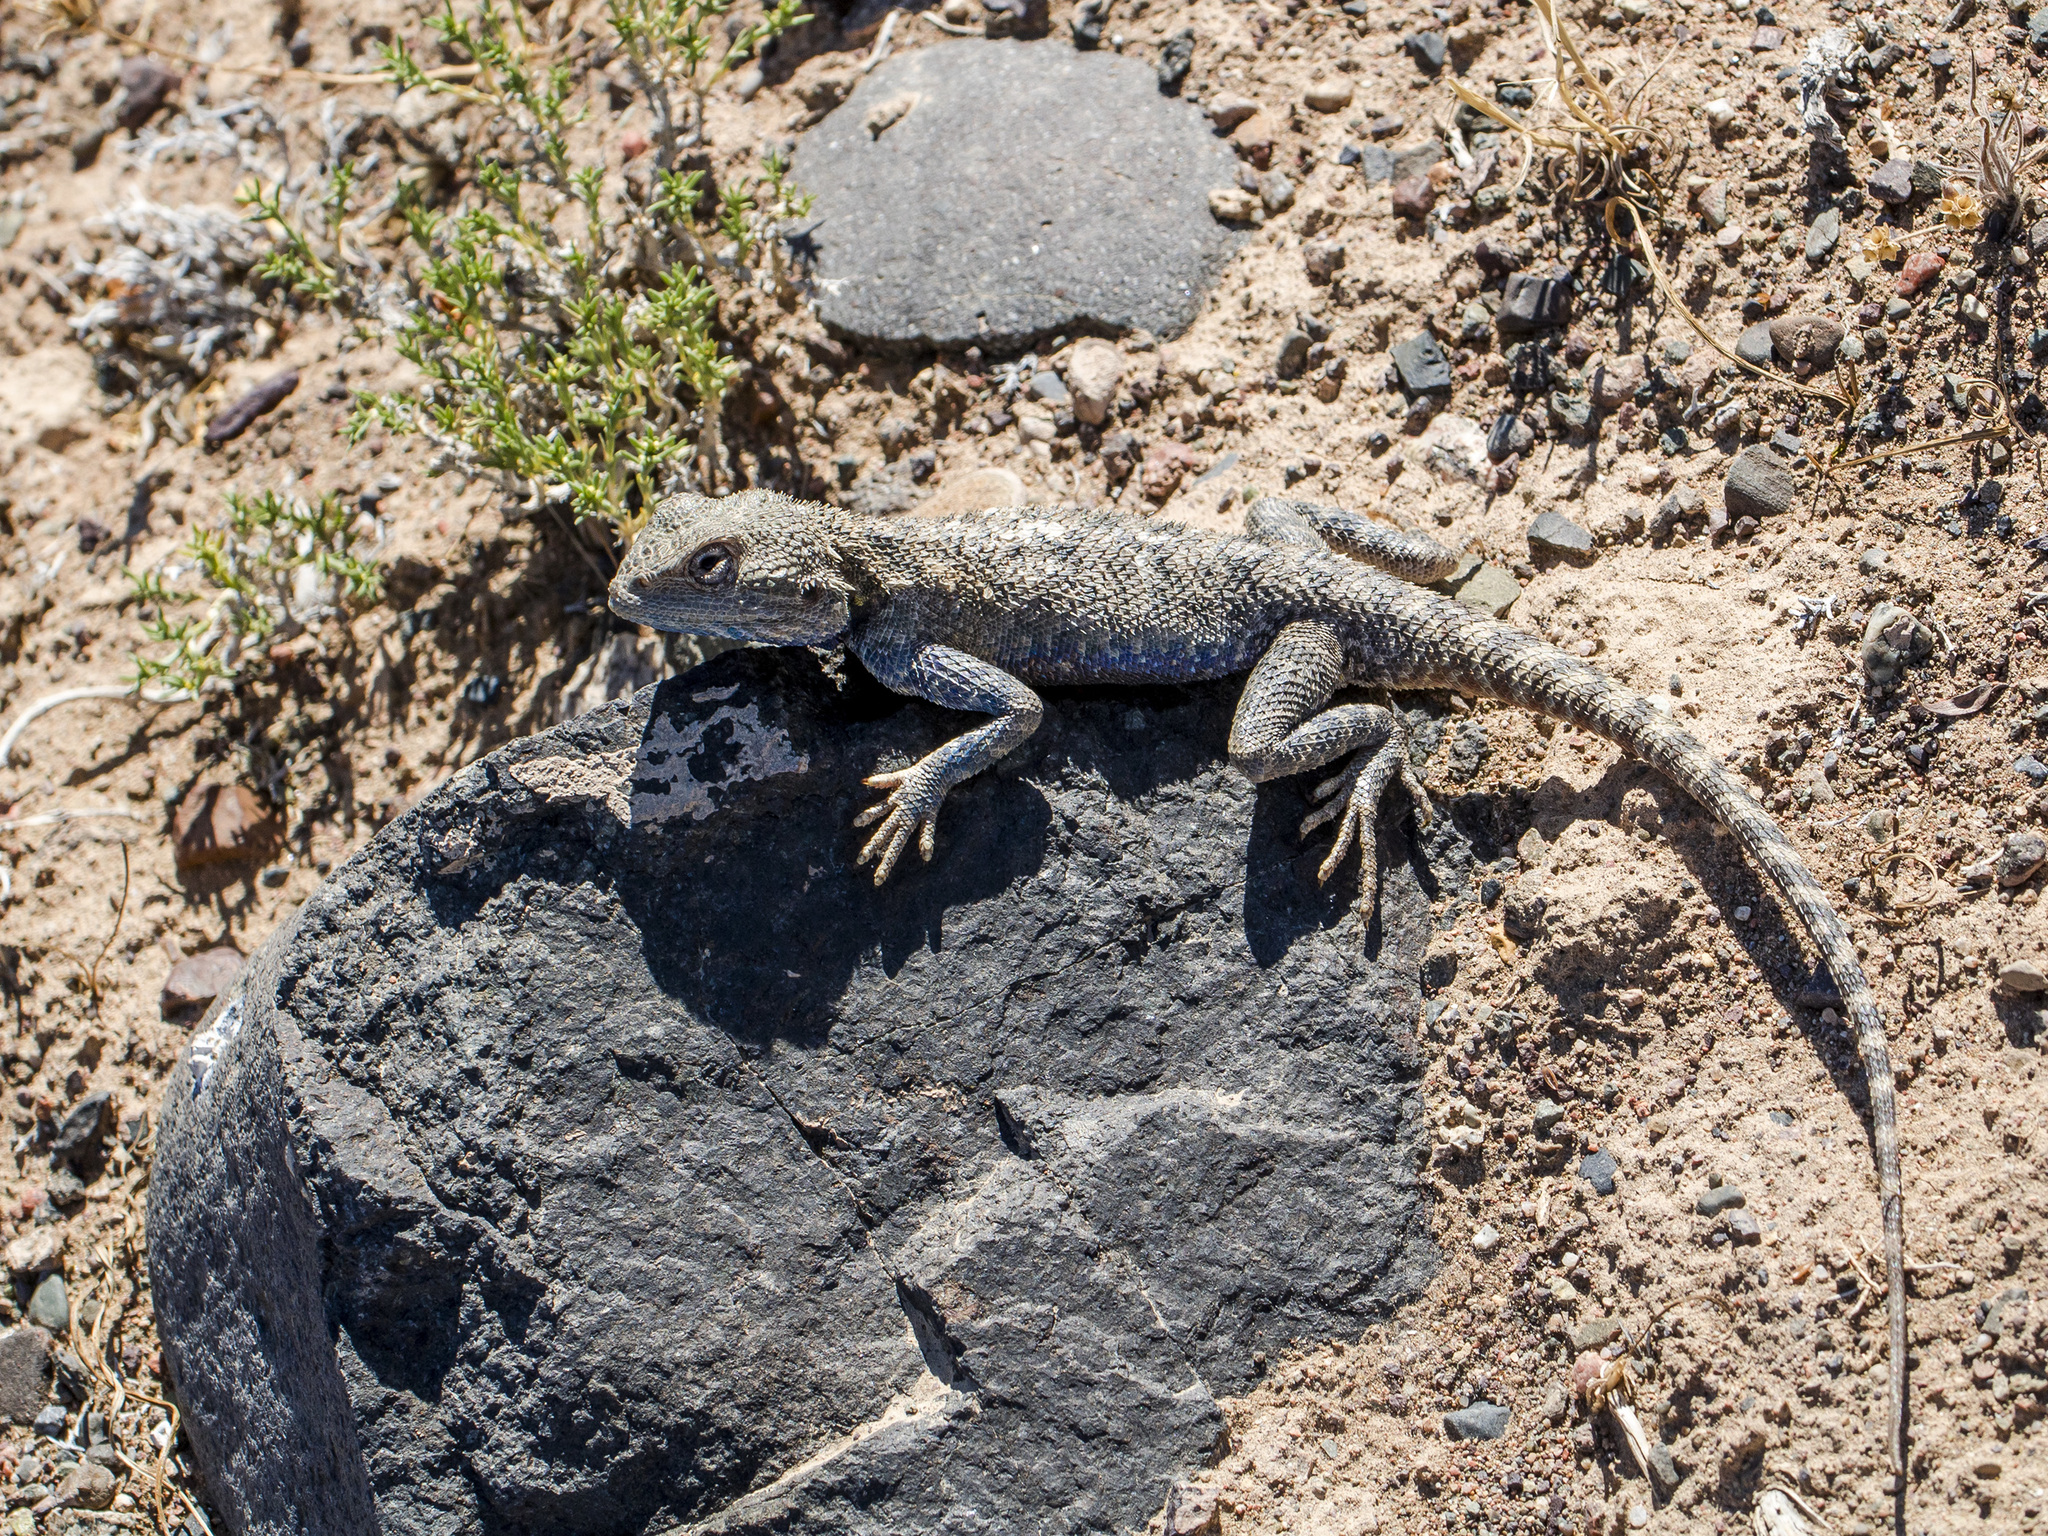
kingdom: Animalia
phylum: Chordata
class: Squamata
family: Agamidae
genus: Trapelus
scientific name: Trapelus sanguinolentus
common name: Steppe agama
